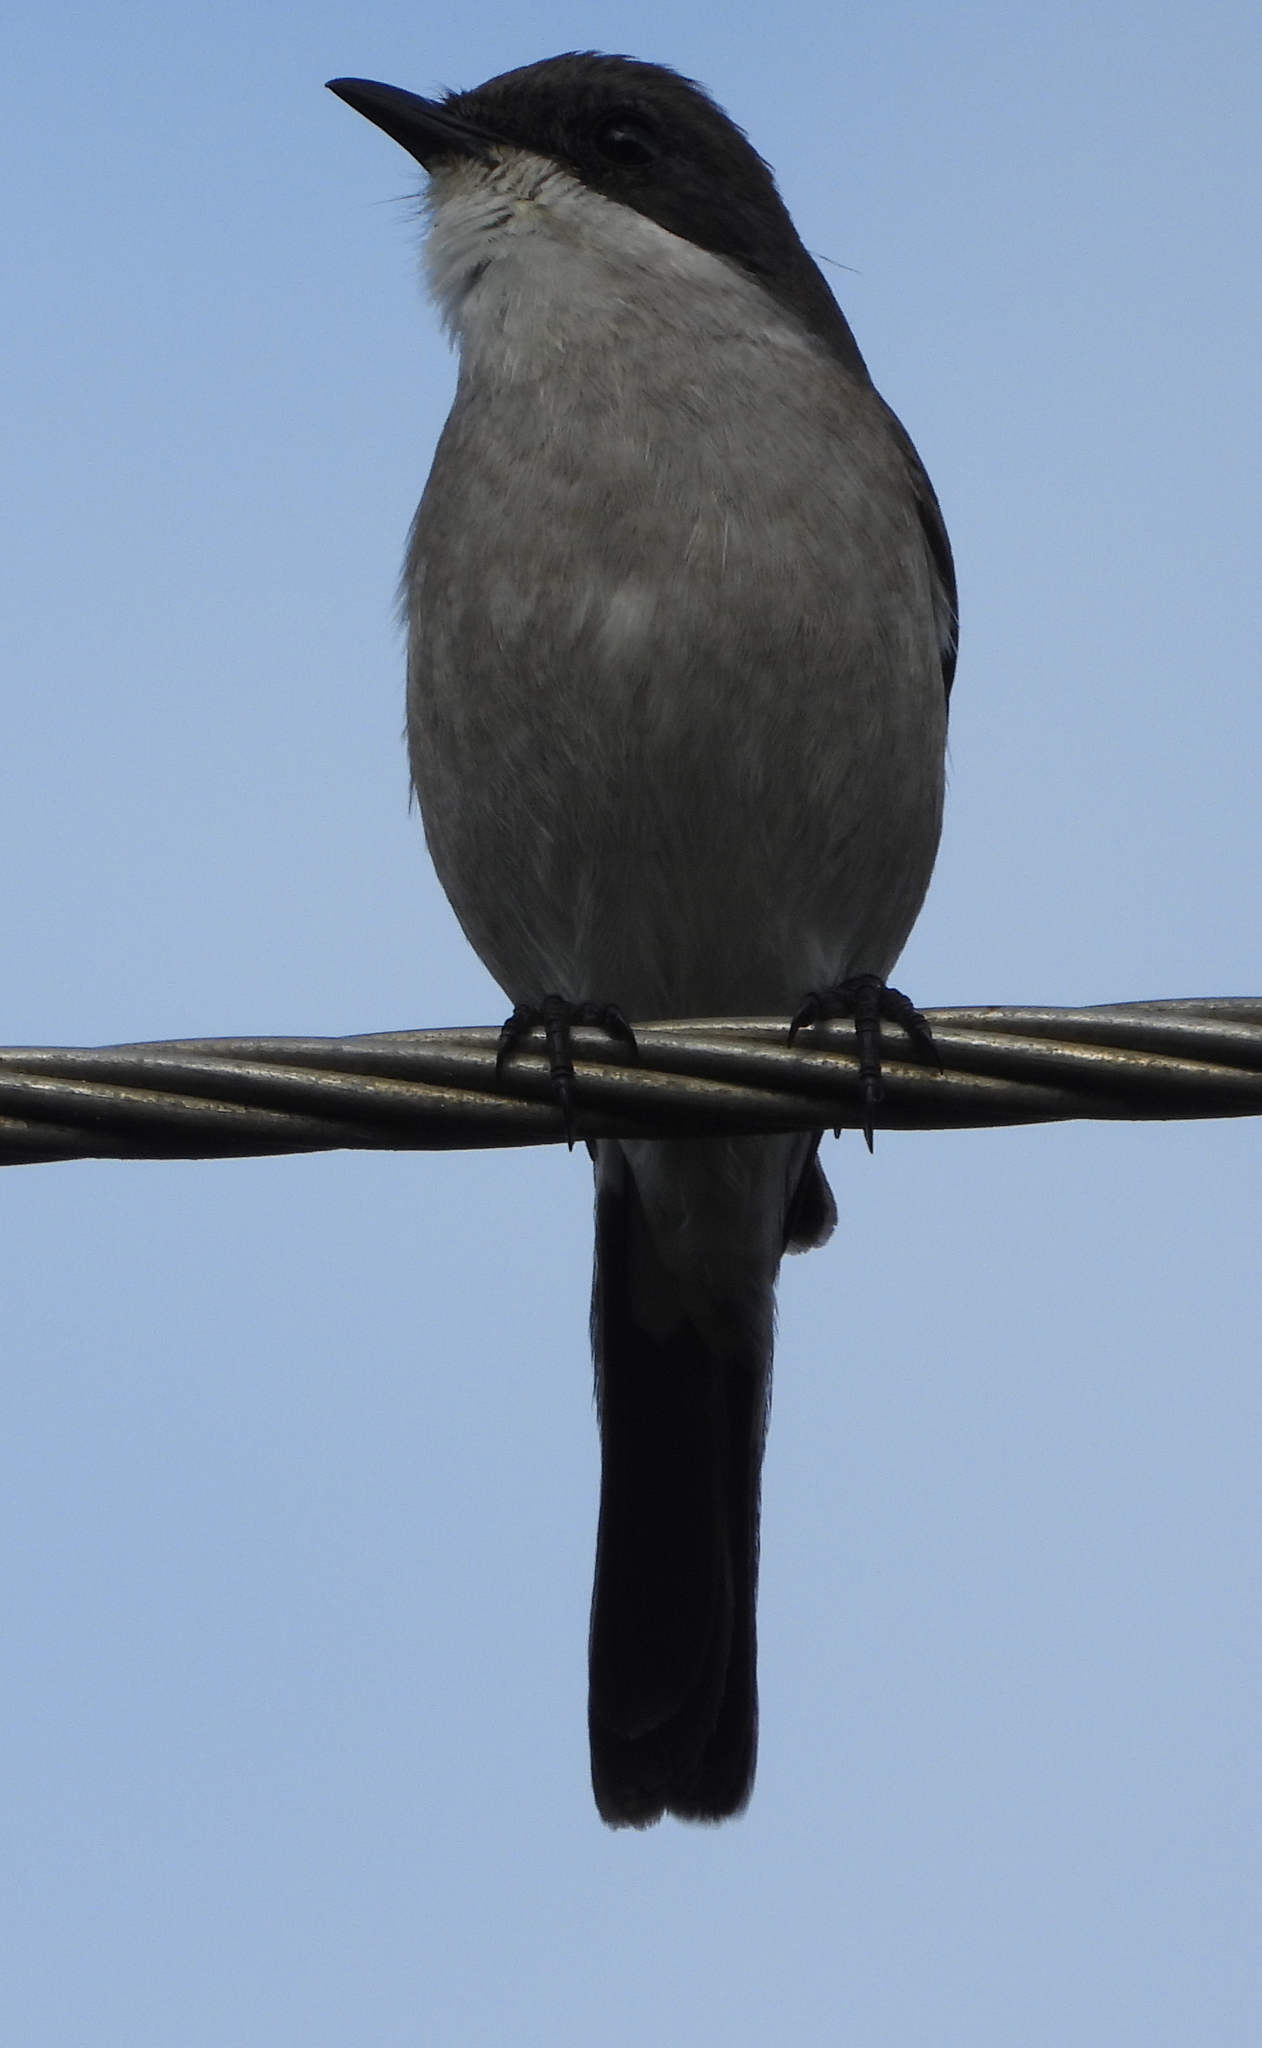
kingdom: Animalia
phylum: Chordata
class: Aves
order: Passeriformes
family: Muscicapidae
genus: Sigelus
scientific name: Sigelus silens
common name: Fiscal flycatcher
